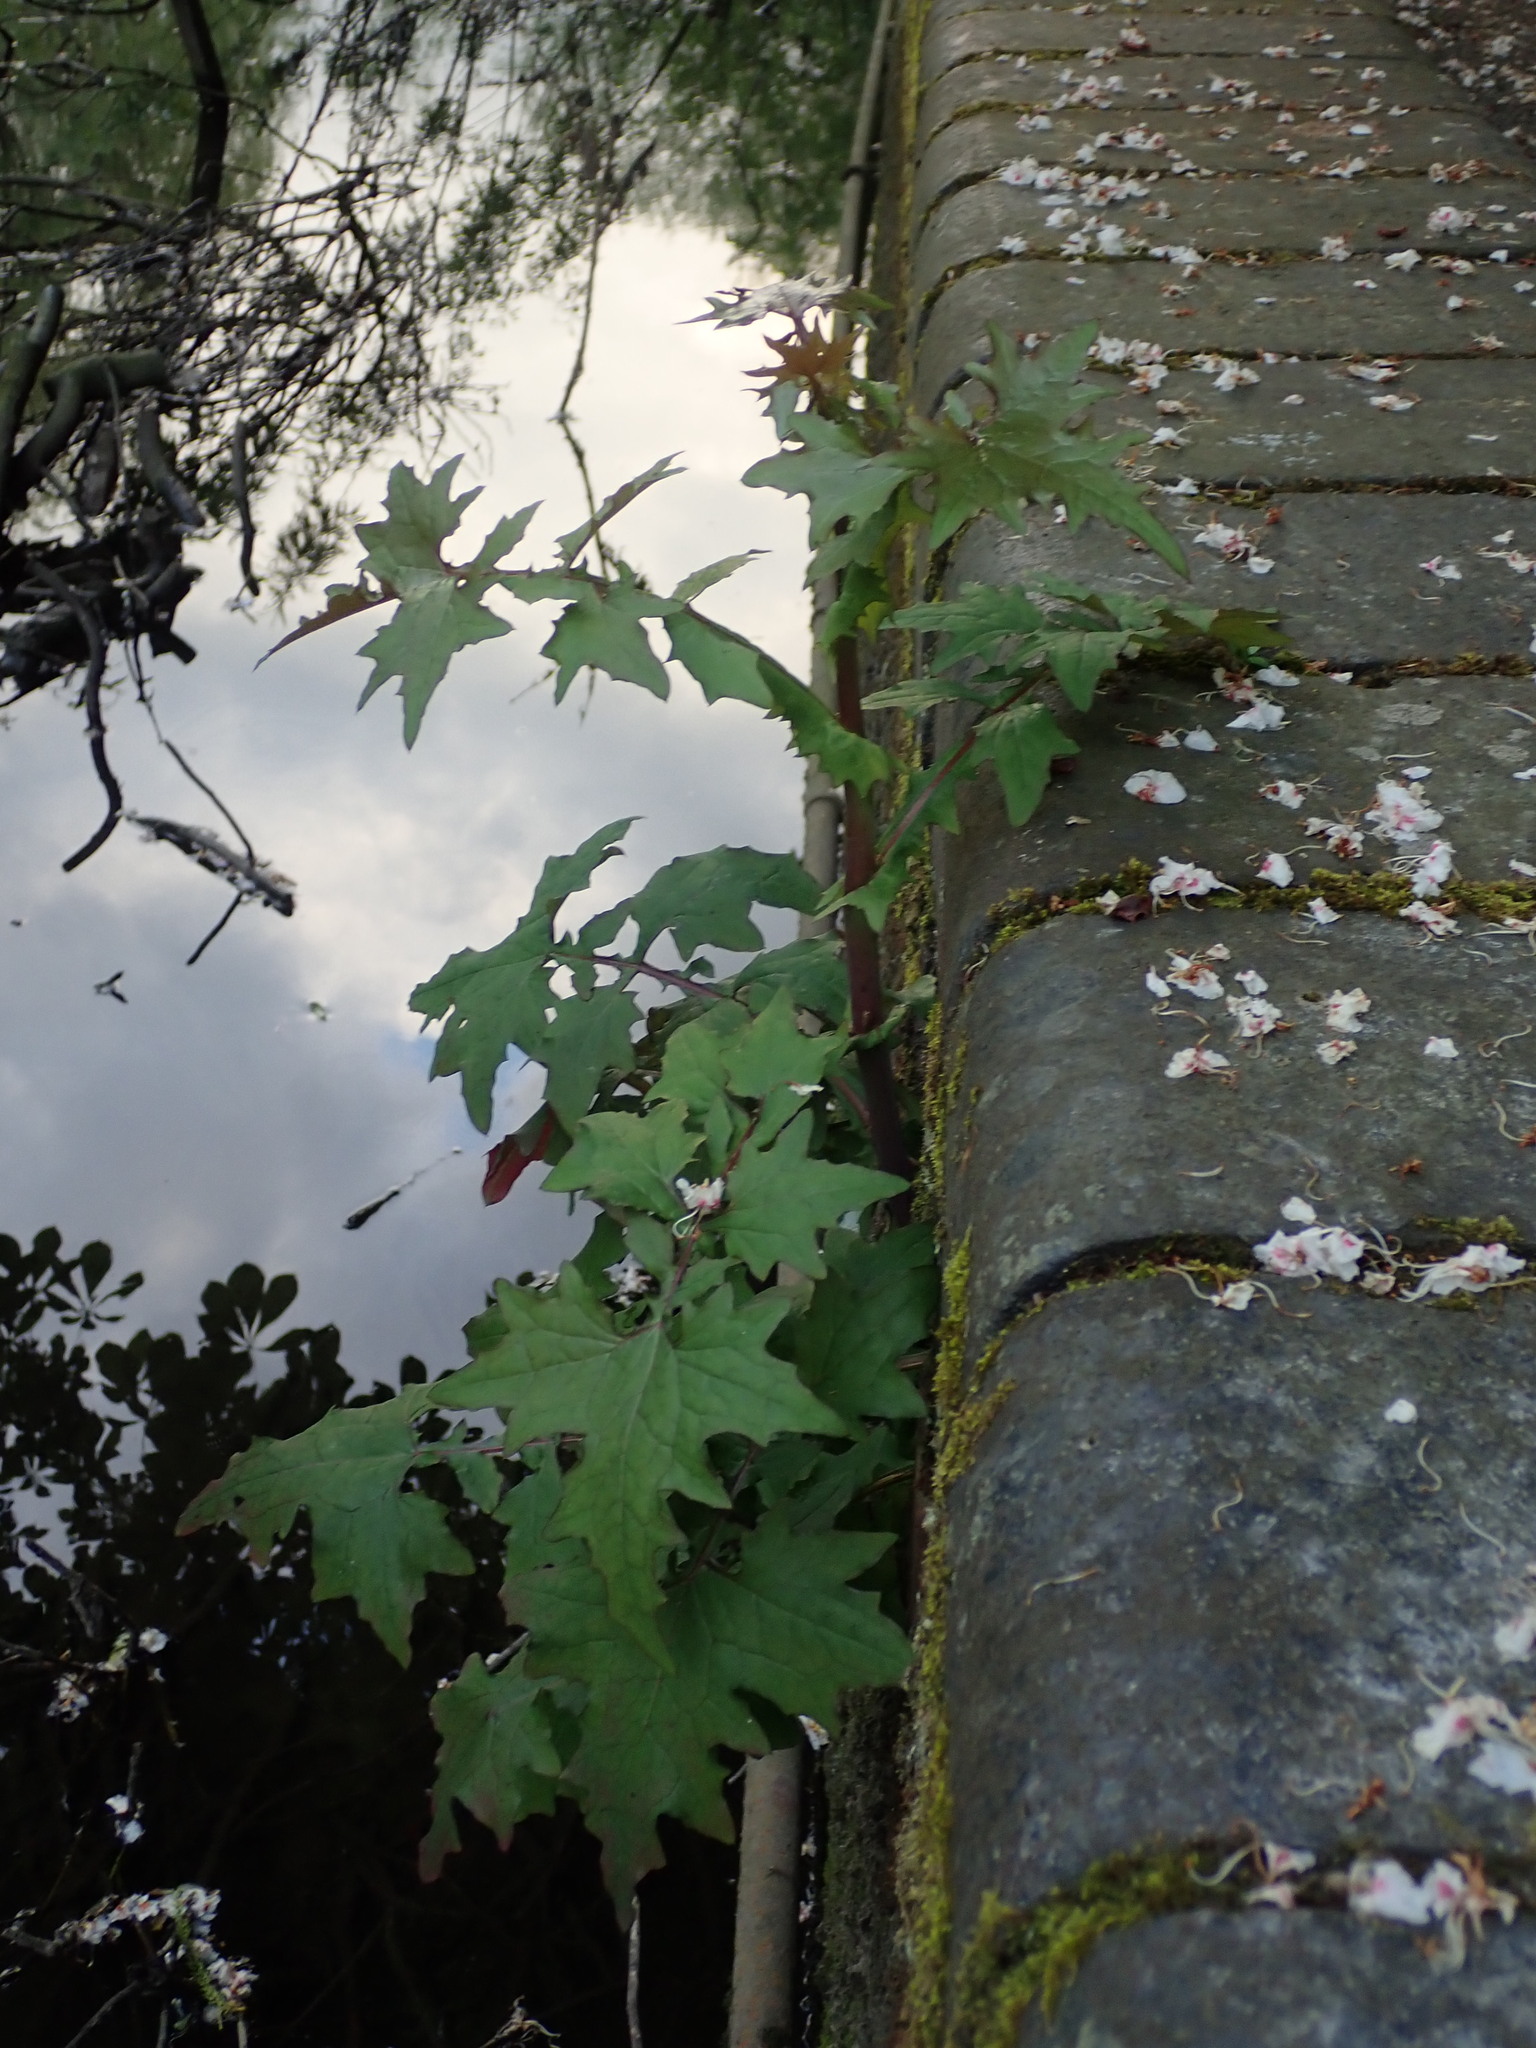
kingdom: Plantae
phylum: Tracheophyta
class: Magnoliopsida
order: Asterales
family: Asteraceae
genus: Mycelis
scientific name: Mycelis muralis
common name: Wall lettuce
